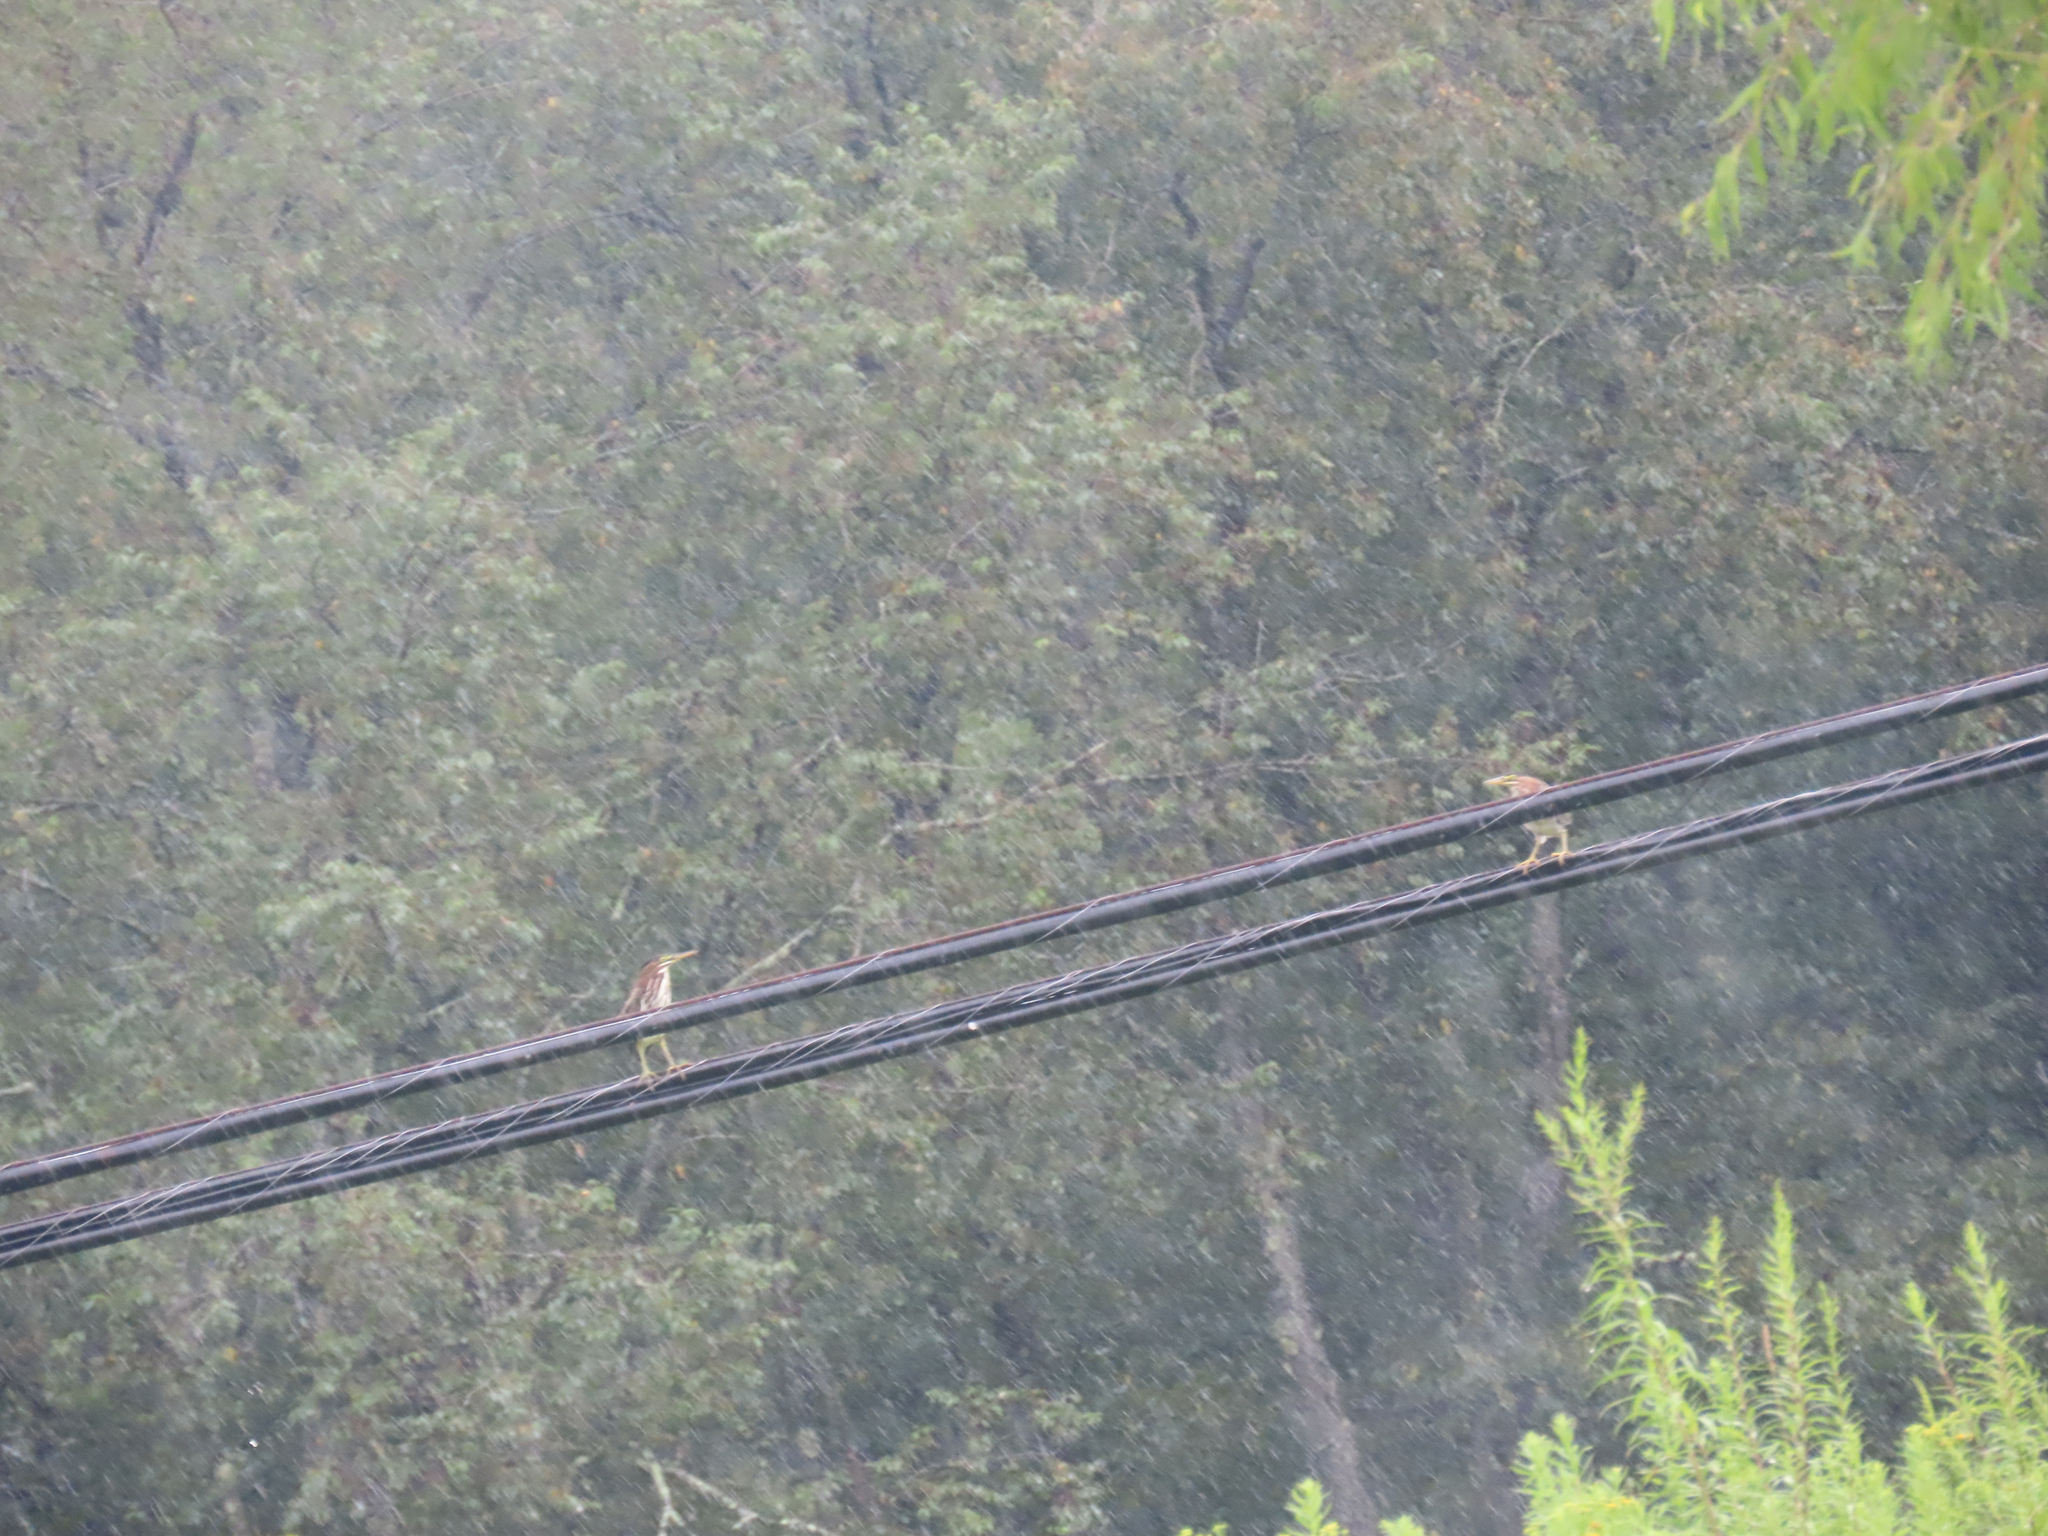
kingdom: Animalia
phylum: Chordata
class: Aves
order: Pelecaniformes
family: Ardeidae
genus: Butorides
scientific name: Butorides virescens
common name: Green heron
